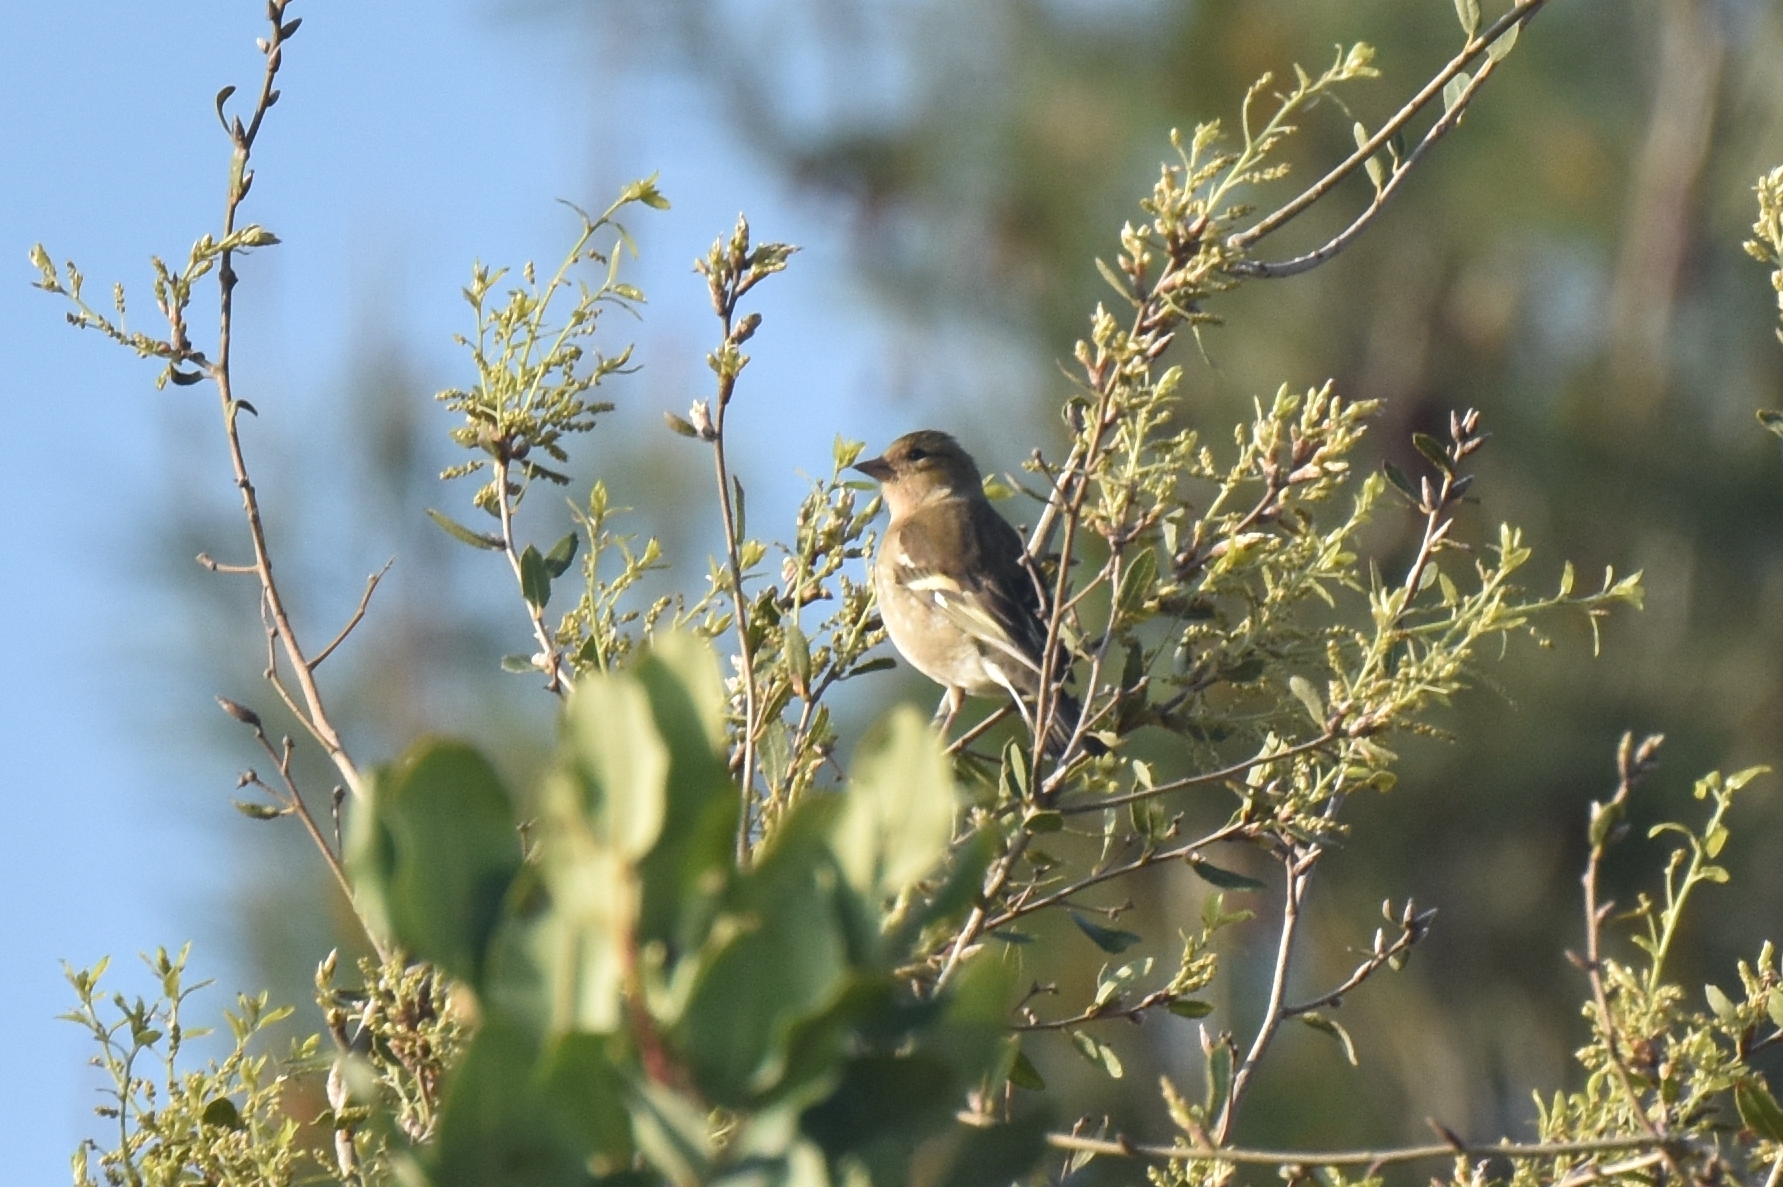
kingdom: Animalia
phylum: Chordata
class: Aves
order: Passeriformes
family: Fringillidae
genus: Fringilla
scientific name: Fringilla coelebs
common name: Common chaffinch
